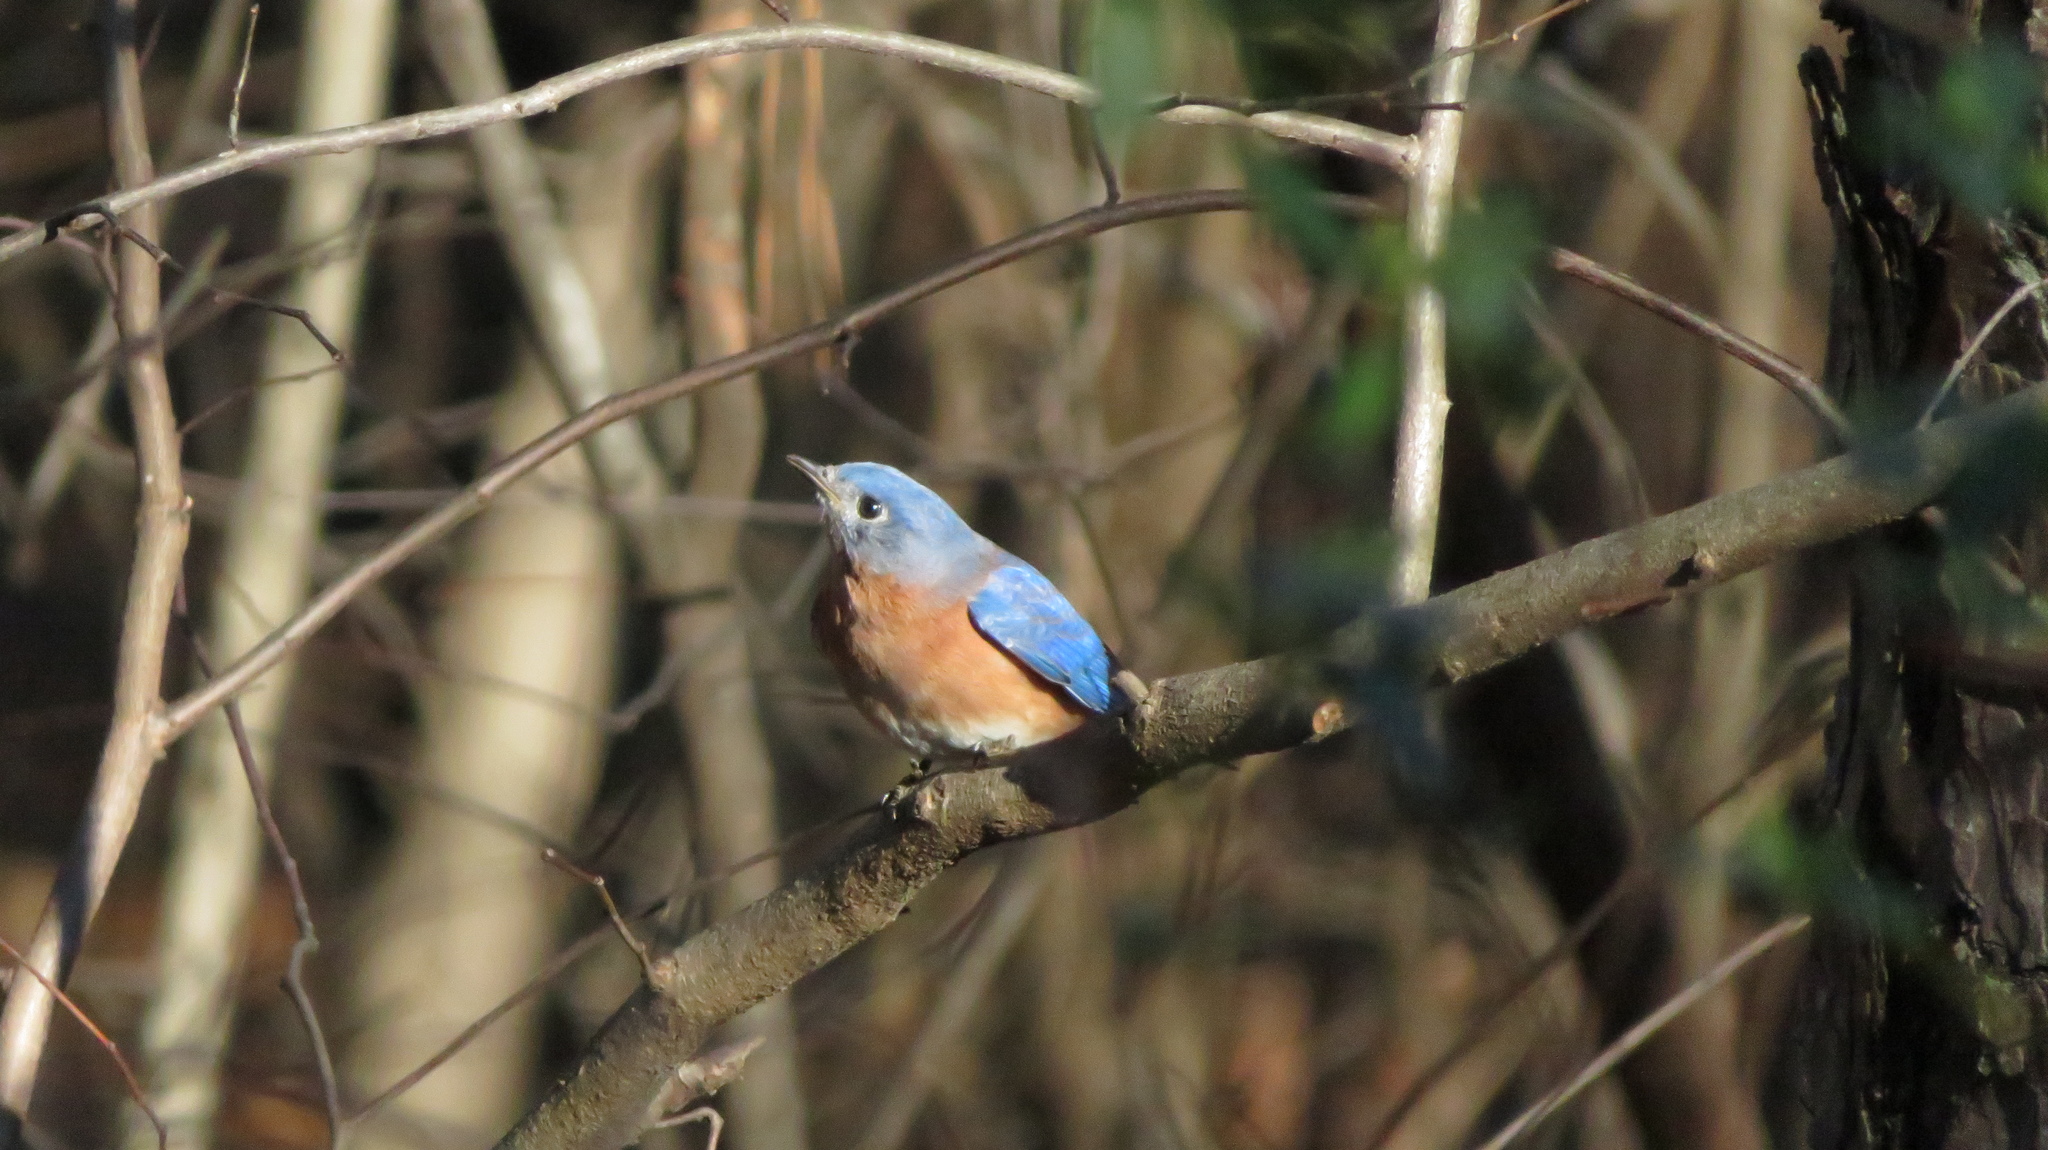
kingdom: Animalia
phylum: Chordata
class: Aves
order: Passeriformes
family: Turdidae
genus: Sialia
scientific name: Sialia sialis
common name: Eastern bluebird
